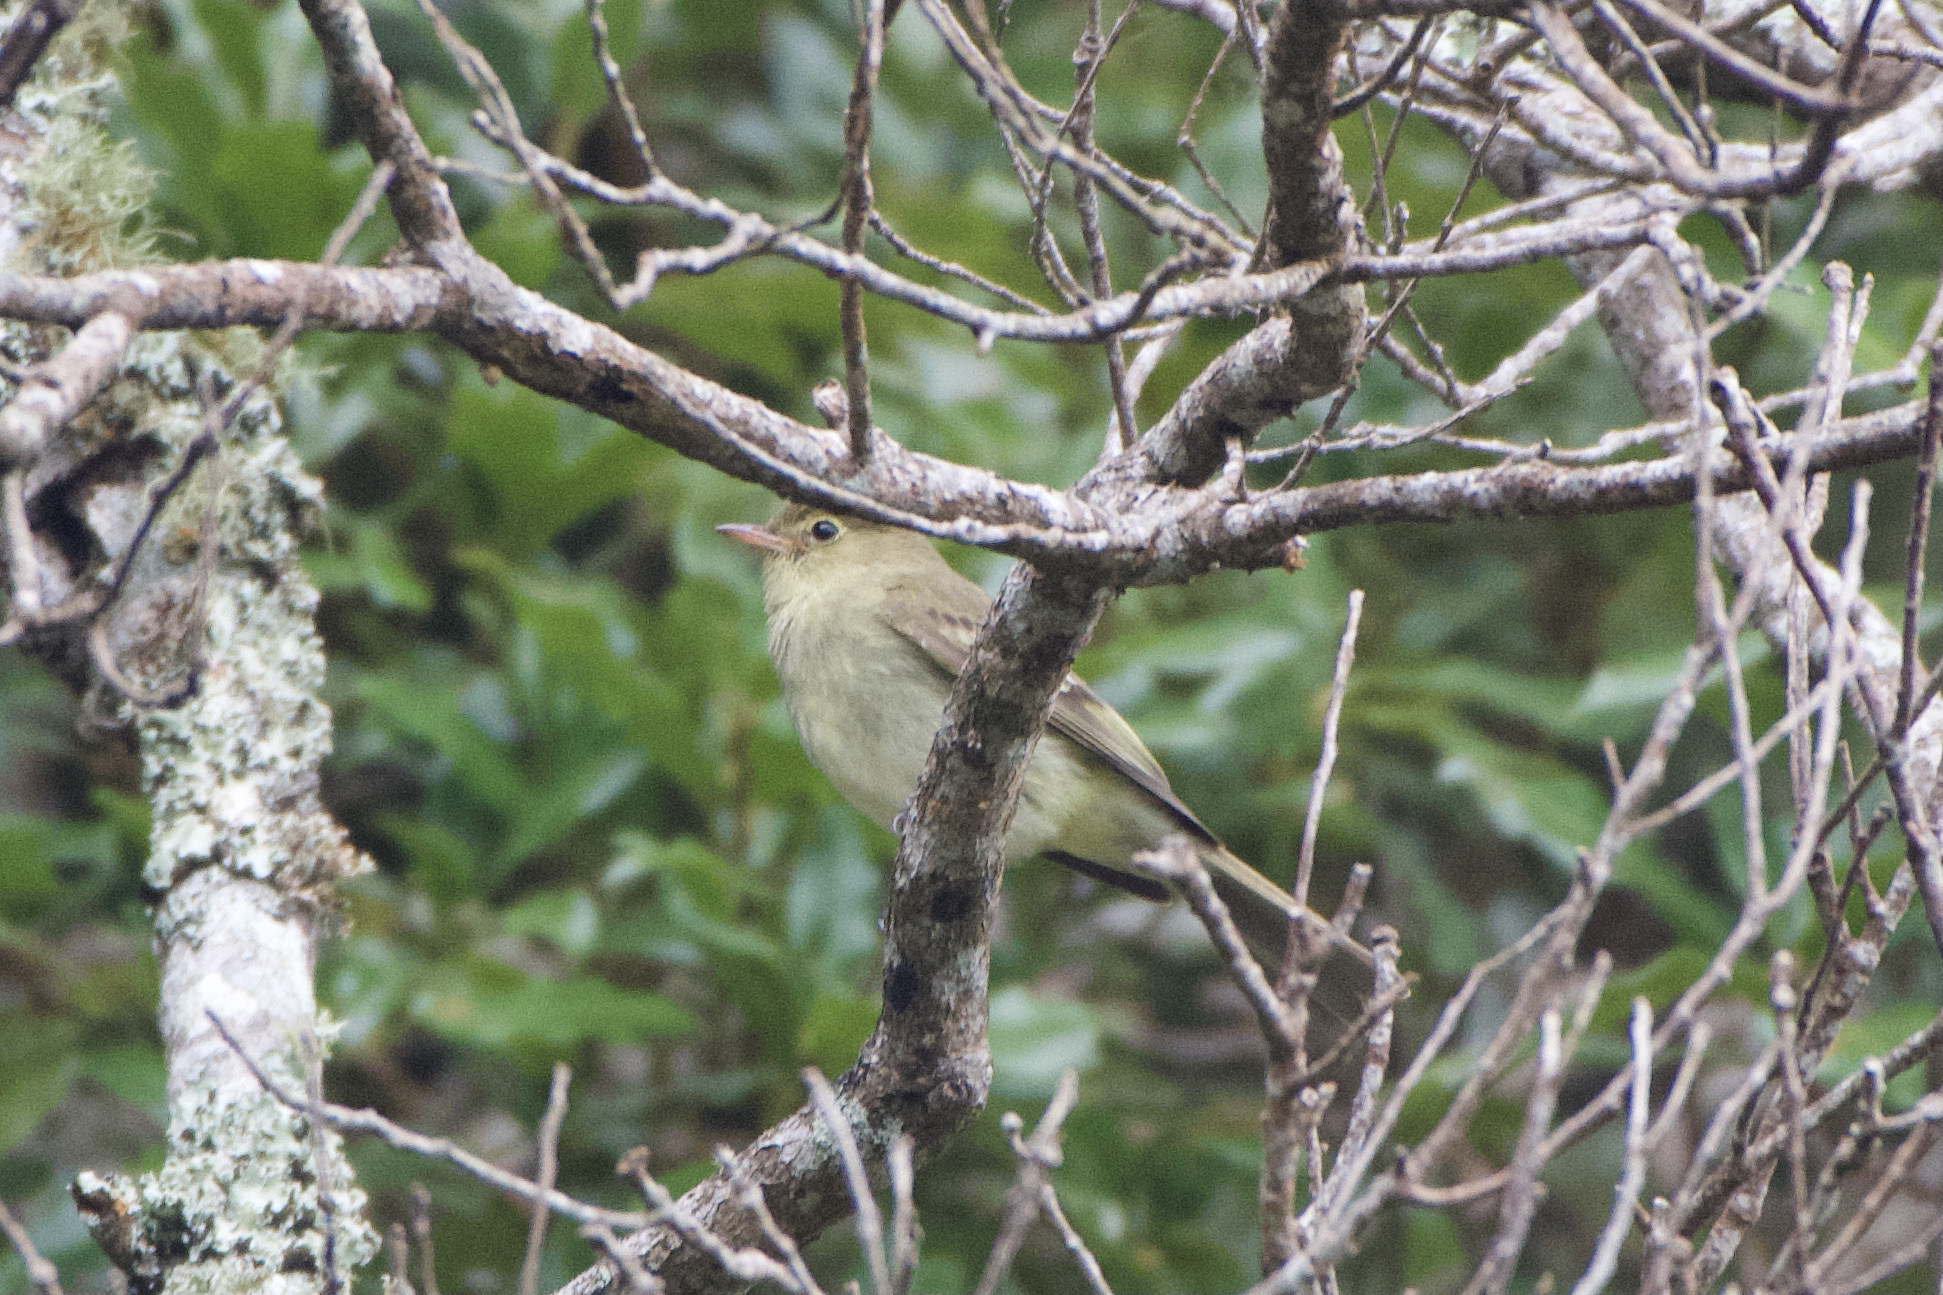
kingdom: Animalia
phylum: Chordata
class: Aves
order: Passeriformes
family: Tyrannidae
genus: Elaenia
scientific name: Elaenia frantzii
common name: Mountain elaenia
